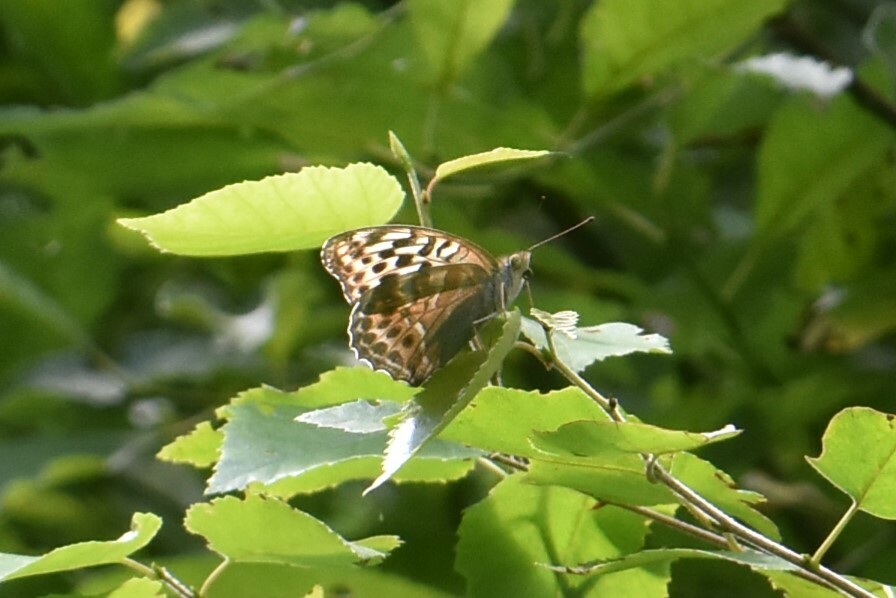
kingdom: Animalia
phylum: Arthropoda
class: Insecta
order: Lepidoptera
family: Nymphalidae
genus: Argynnis
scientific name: Argynnis paphia
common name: Silver-washed fritillary
